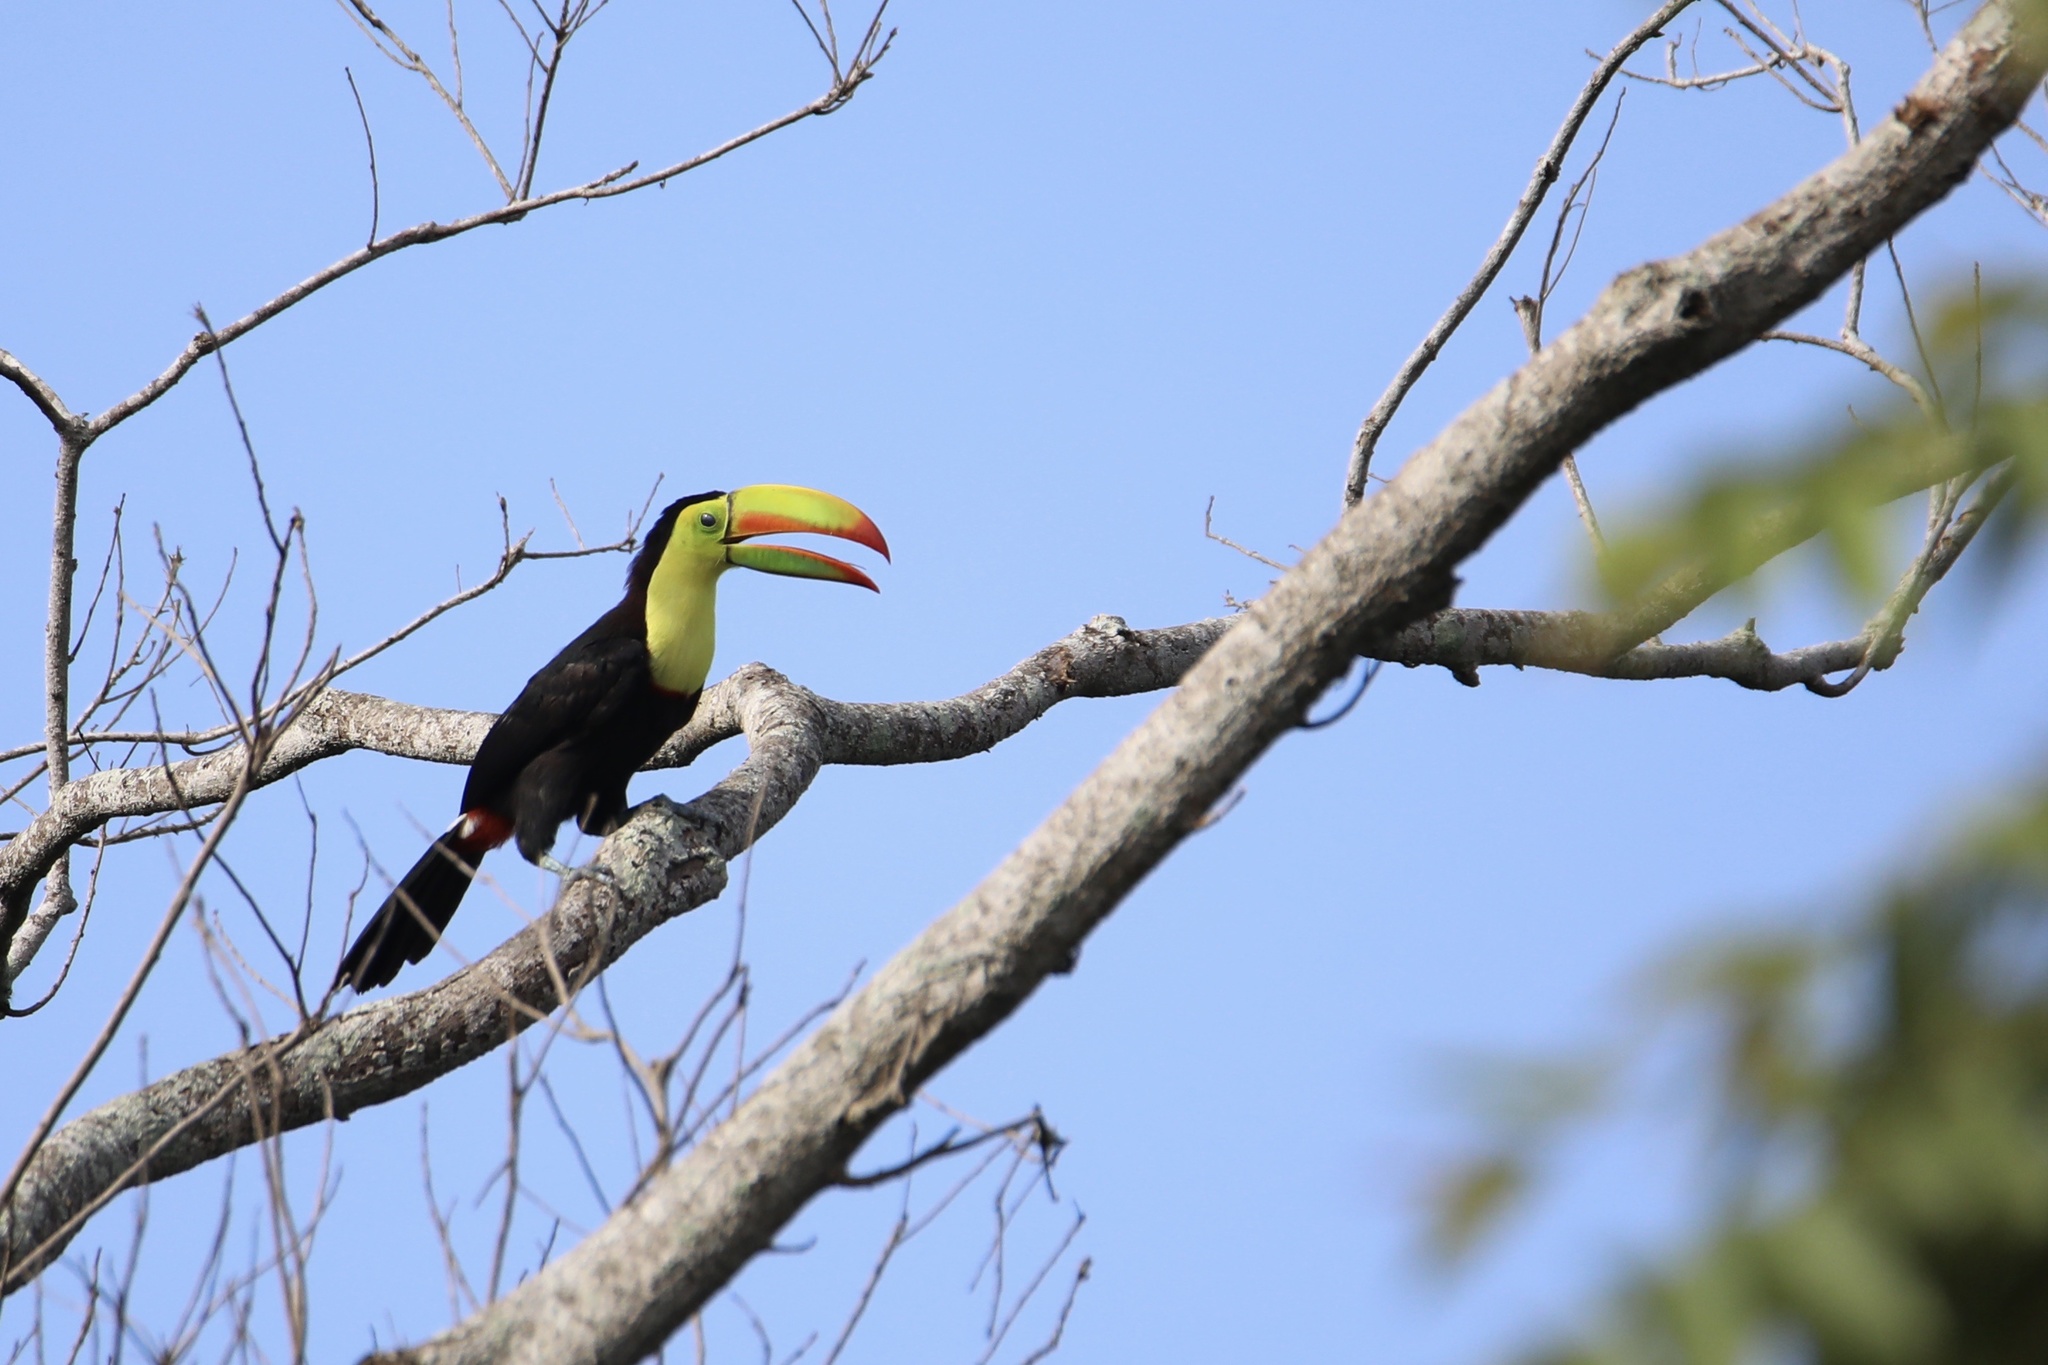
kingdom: Animalia
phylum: Chordata
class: Aves
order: Piciformes
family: Ramphastidae
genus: Ramphastos
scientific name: Ramphastos sulfuratus
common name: Keel-billed toucan
